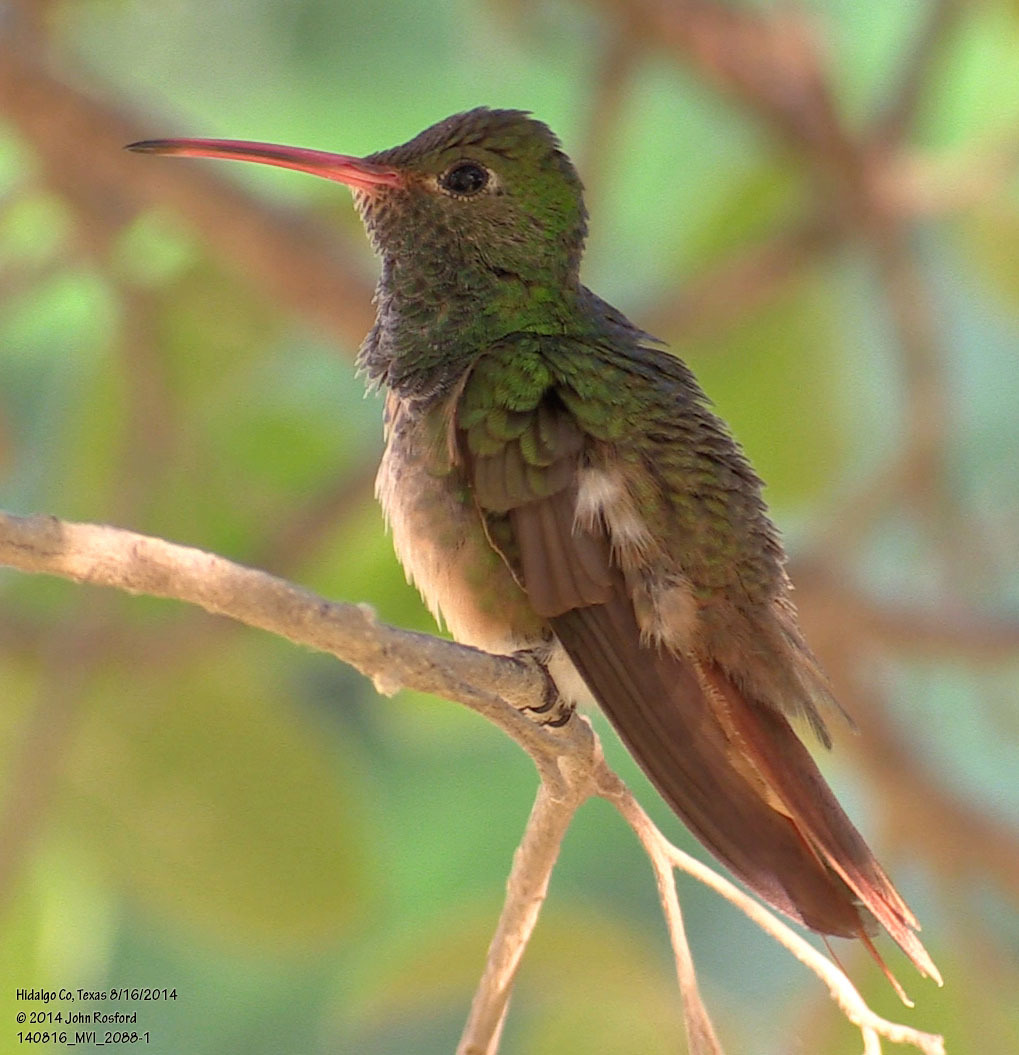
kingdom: Animalia
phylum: Chordata
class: Aves
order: Apodiformes
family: Trochilidae
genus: Amazilia
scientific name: Amazilia yucatanensis
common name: Buff-bellied hummingbird
